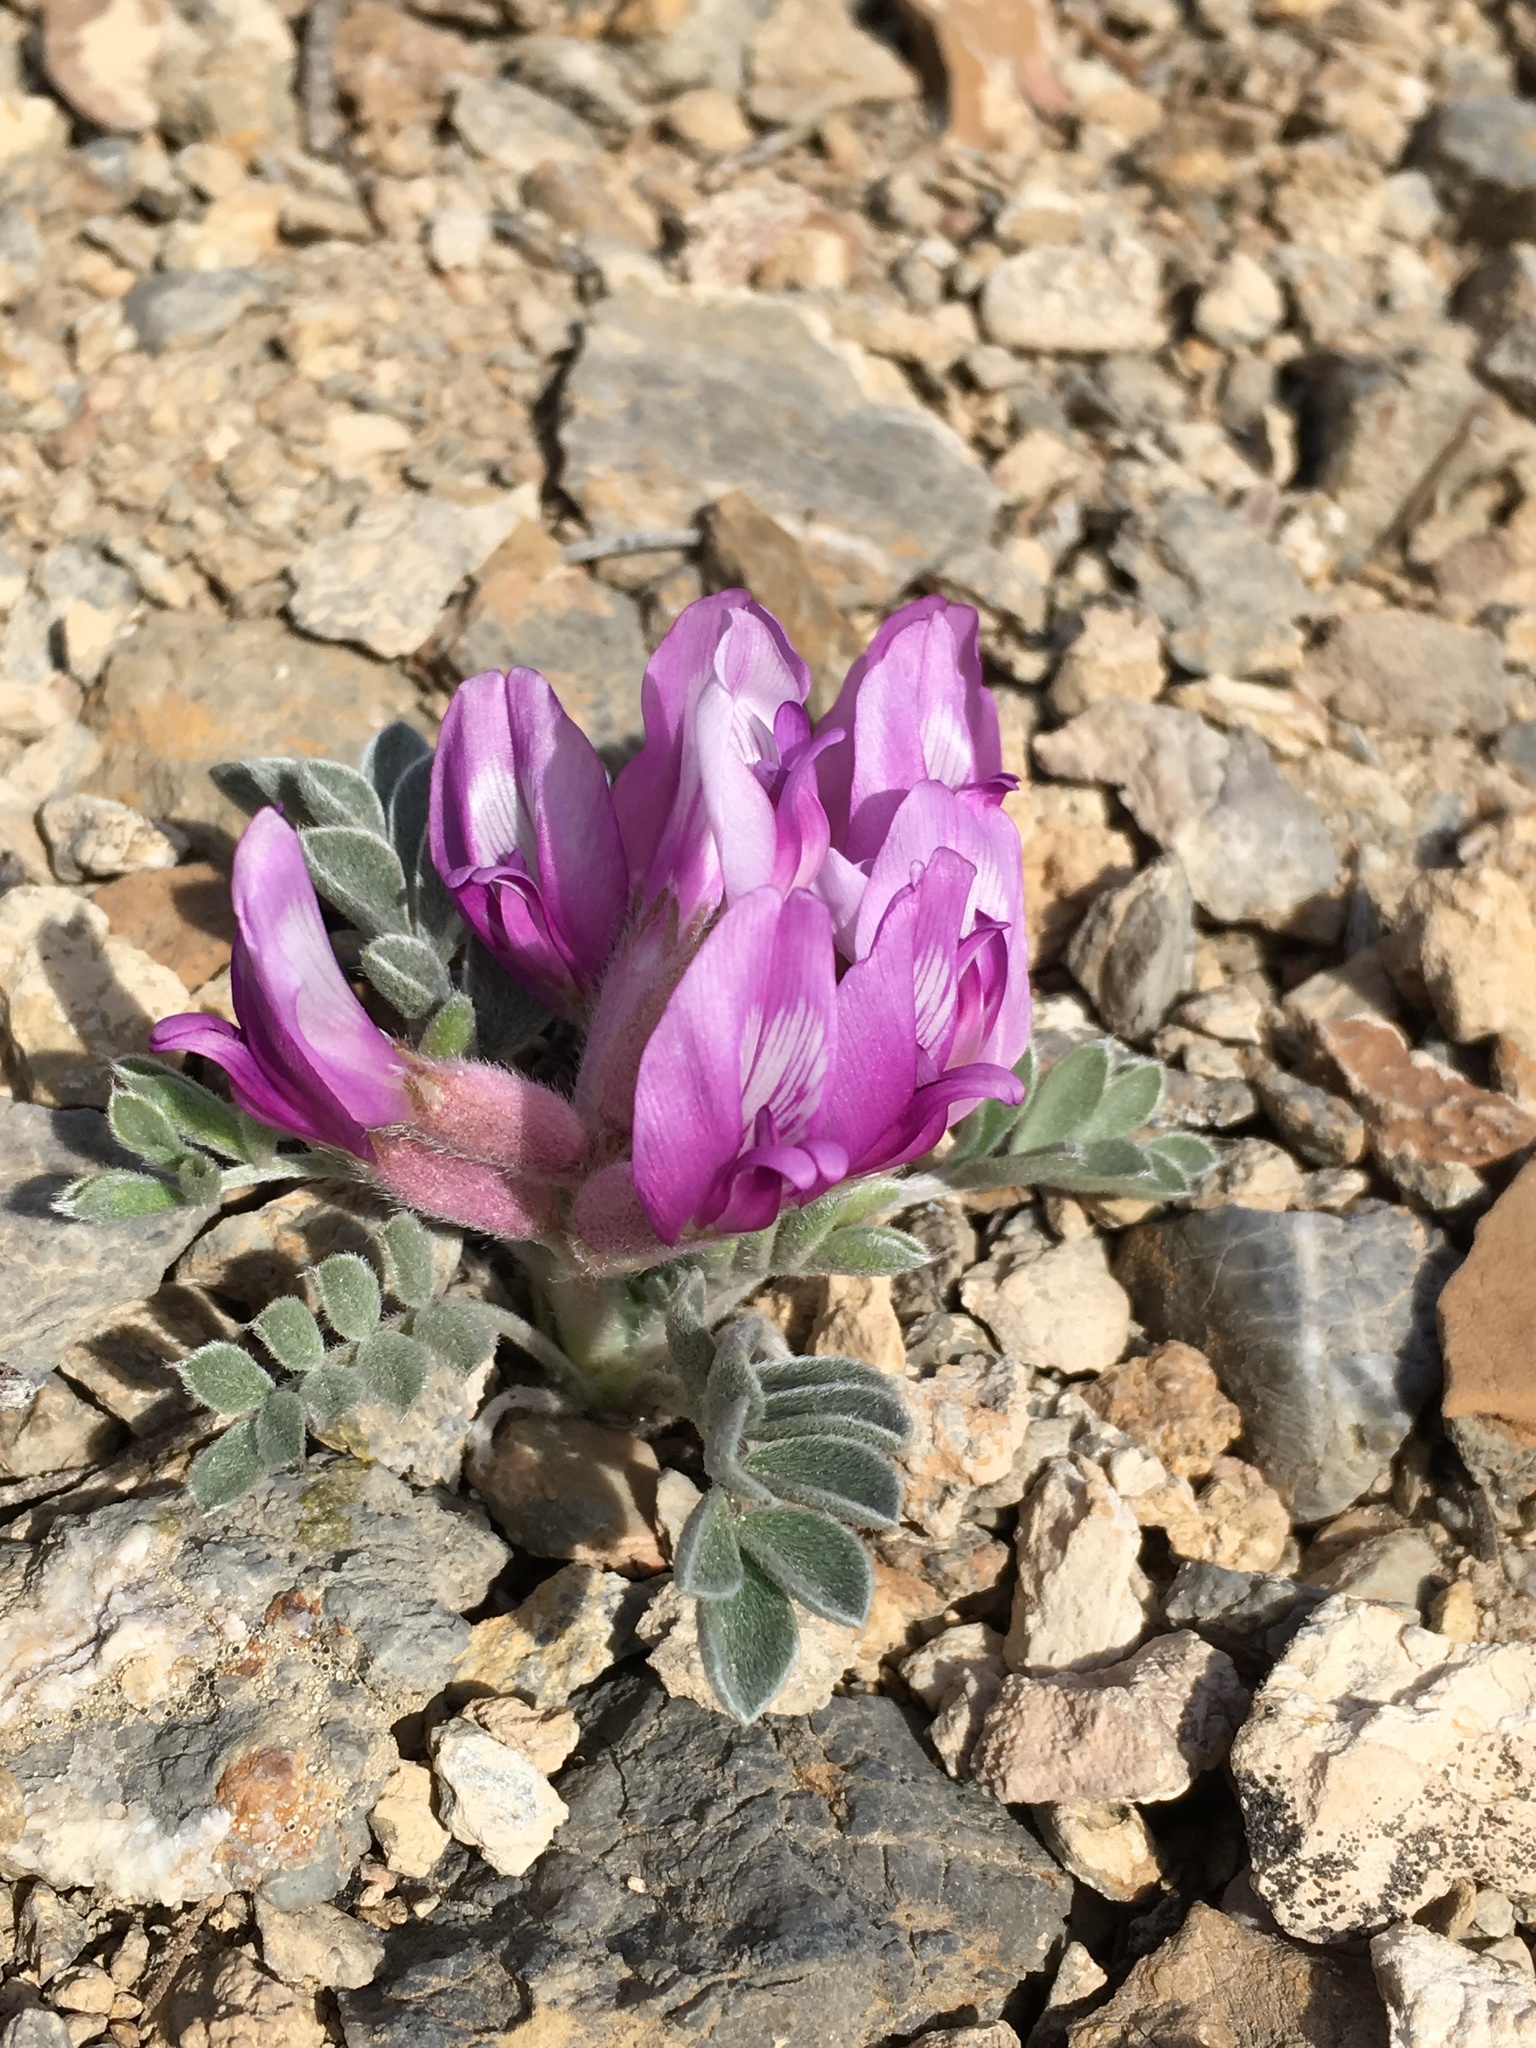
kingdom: Plantae
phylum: Tracheophyta
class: Magnoliopsida
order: Fabales
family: Fabaceae
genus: Astragalus
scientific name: Astragalus newberryi
